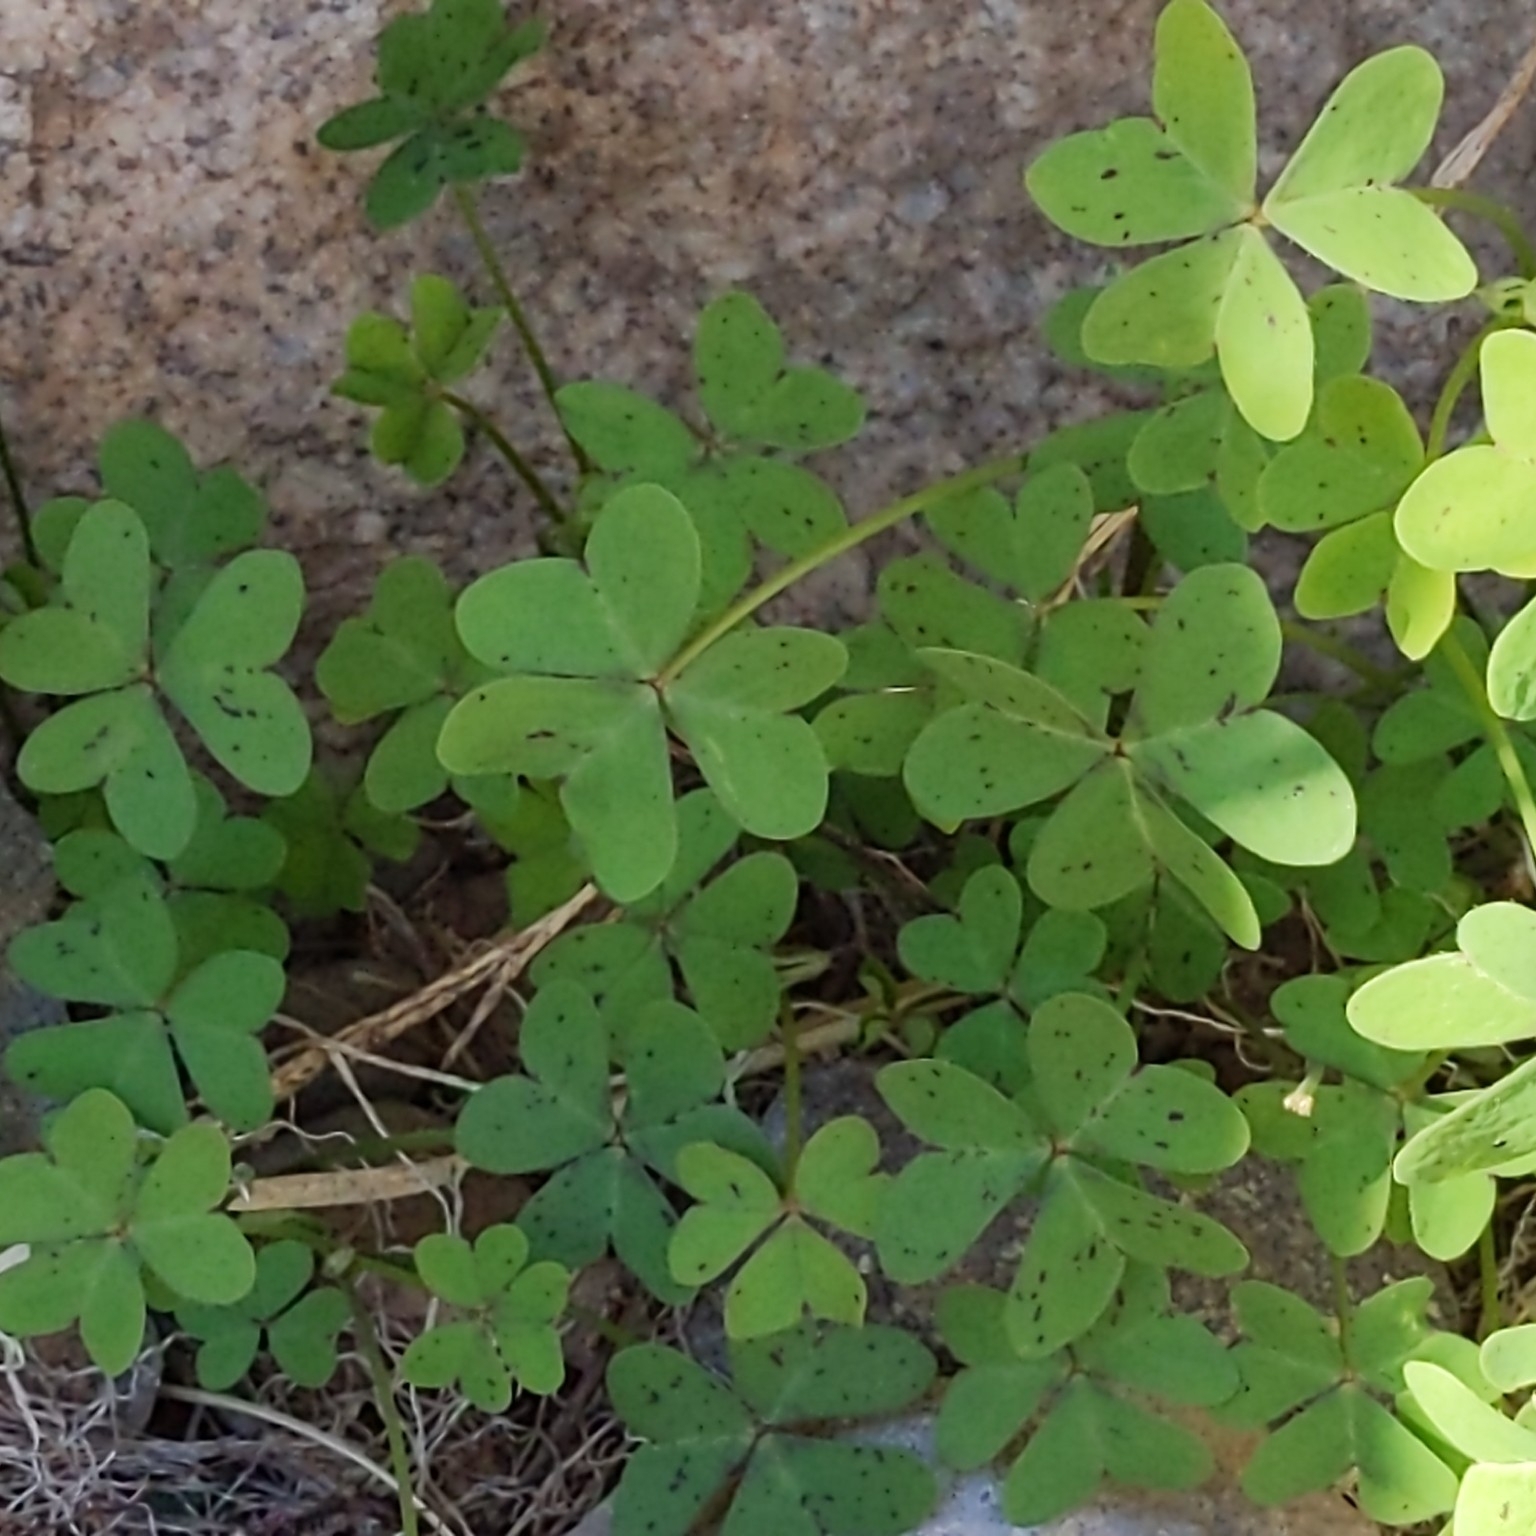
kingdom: Plantae
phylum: Tracheophyta
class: Magnoliopsida
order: Oxalidales
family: Oxalidaceae
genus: Oxalis
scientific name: Oxalis pes-caprae
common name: Bermuda-buttercup
